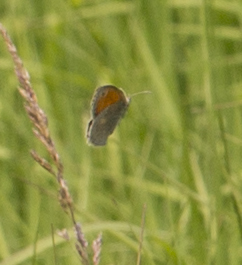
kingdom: Animalia
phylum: Arthropoda
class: Insecta
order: Lepidoptera
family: Nymphalidae
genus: Coenonympha
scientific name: Coenonympha pamphilus
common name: Small heath
